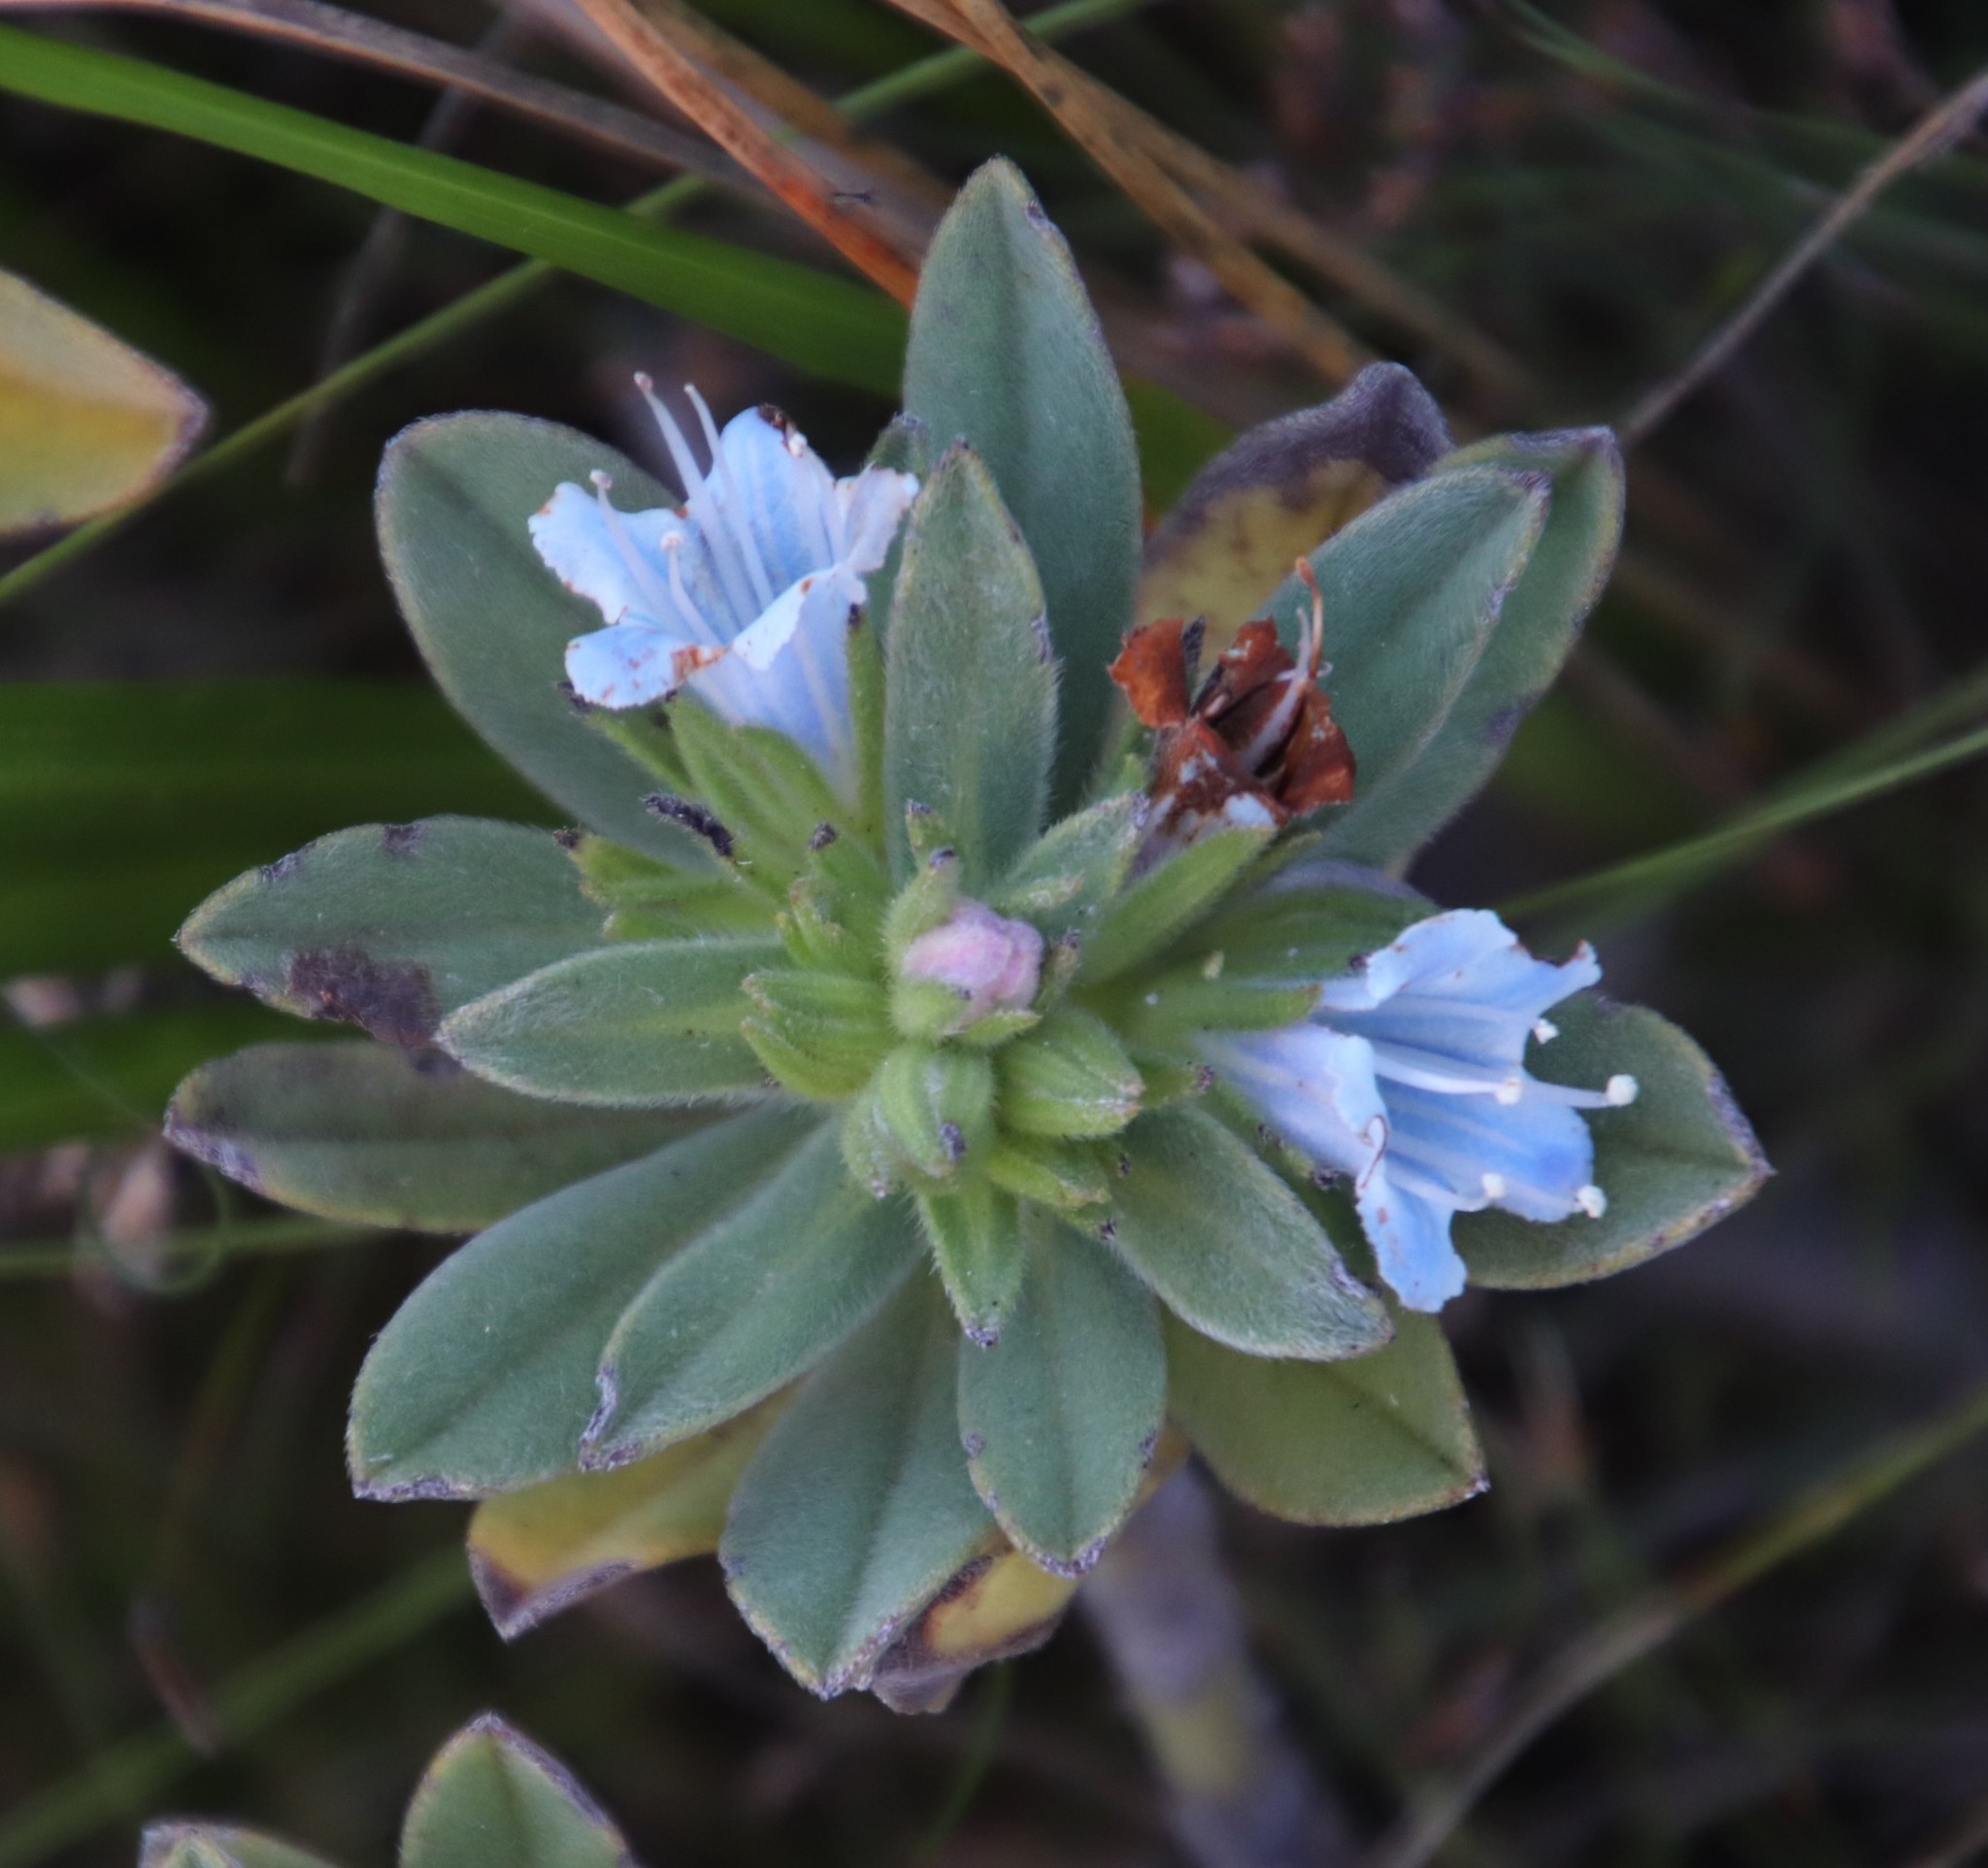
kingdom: Plantae
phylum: Tracheophyta
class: Magnoliopsida
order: Boraginales
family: Boraginaceae
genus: Lobostemon
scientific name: Lobostemon montanus
